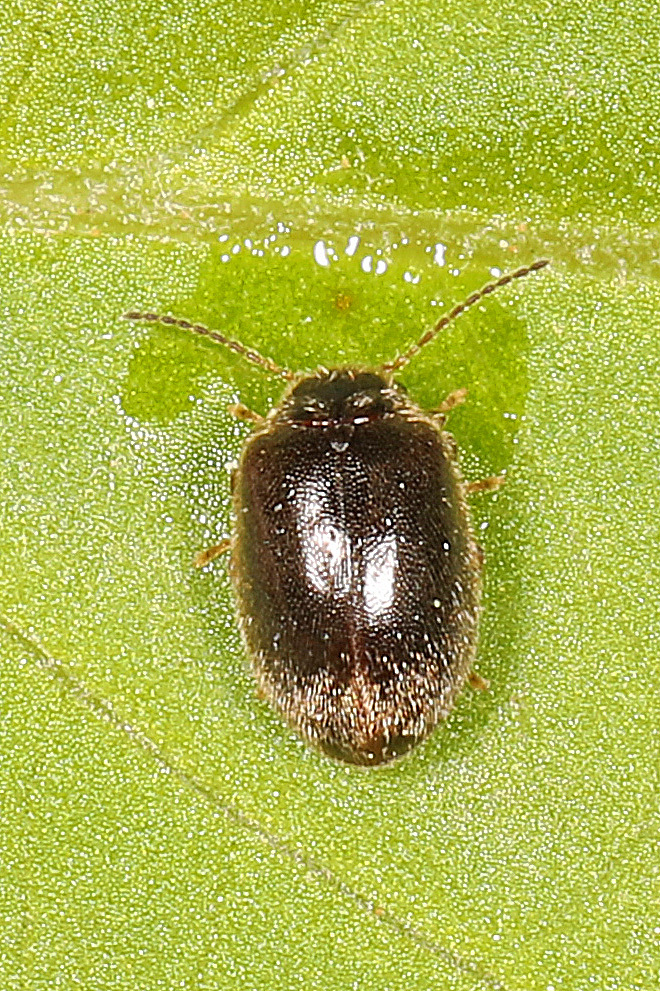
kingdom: Animalia
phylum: Arthropoda
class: Insecta
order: Coleoptera
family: Scirtidae
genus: Contacyphon
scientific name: Contacyphon
